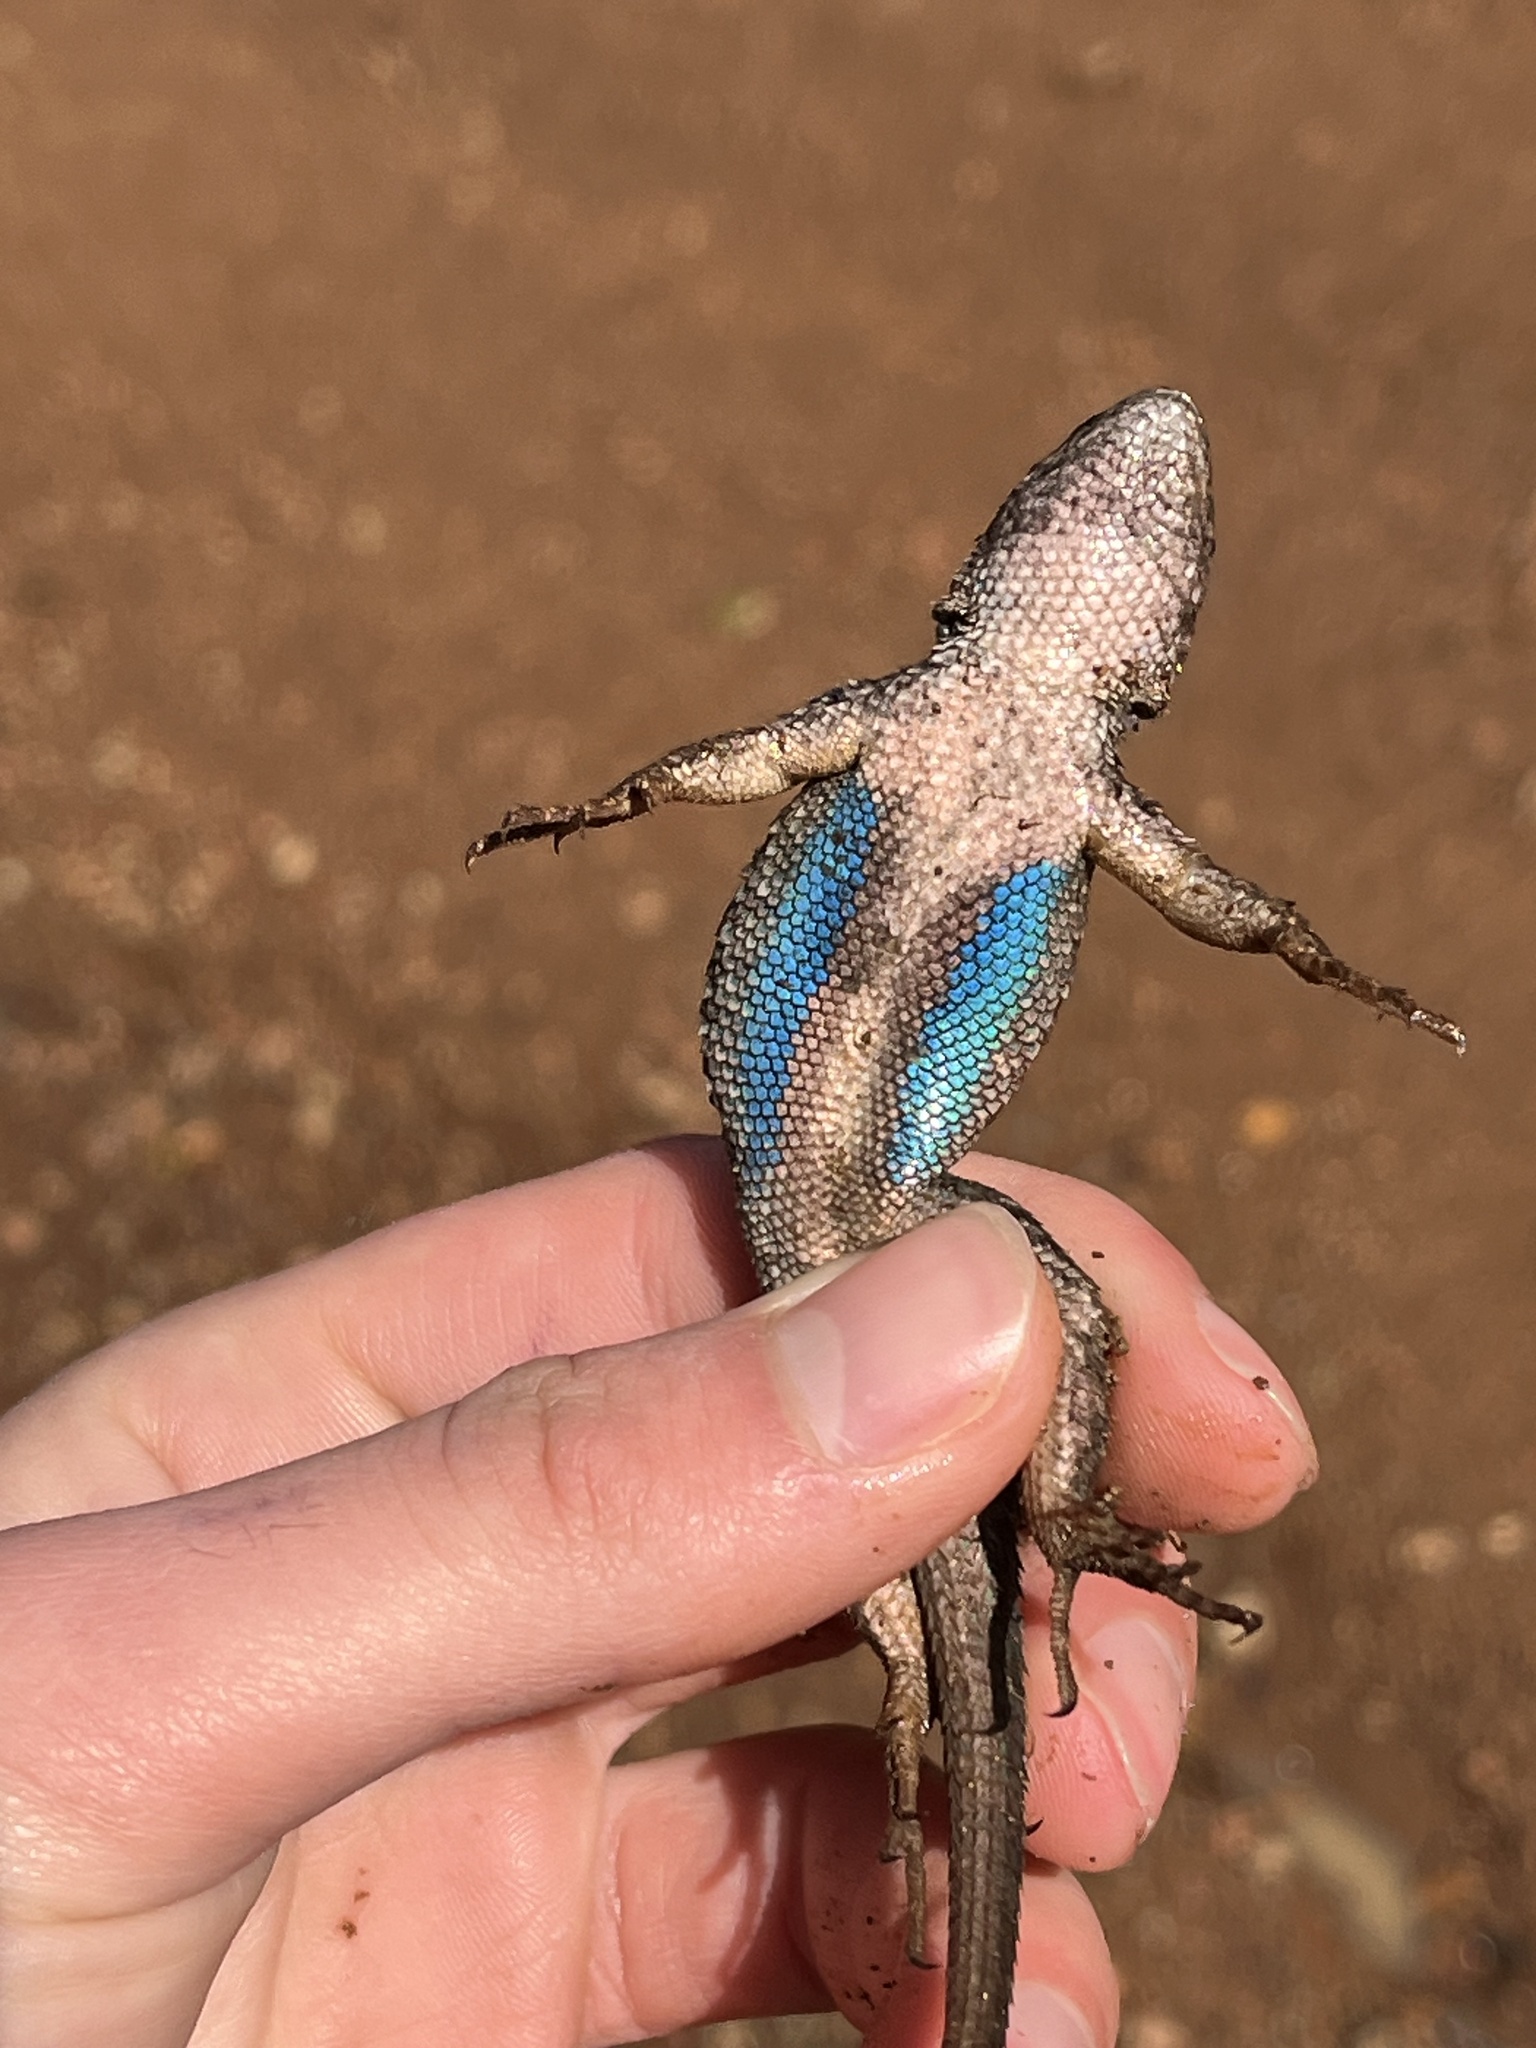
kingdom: Animalia
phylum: Chordata
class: Squamata
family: Phrynosomatidae
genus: Sceloporus
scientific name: Sceloporus occidentalis
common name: Western fence lizard
